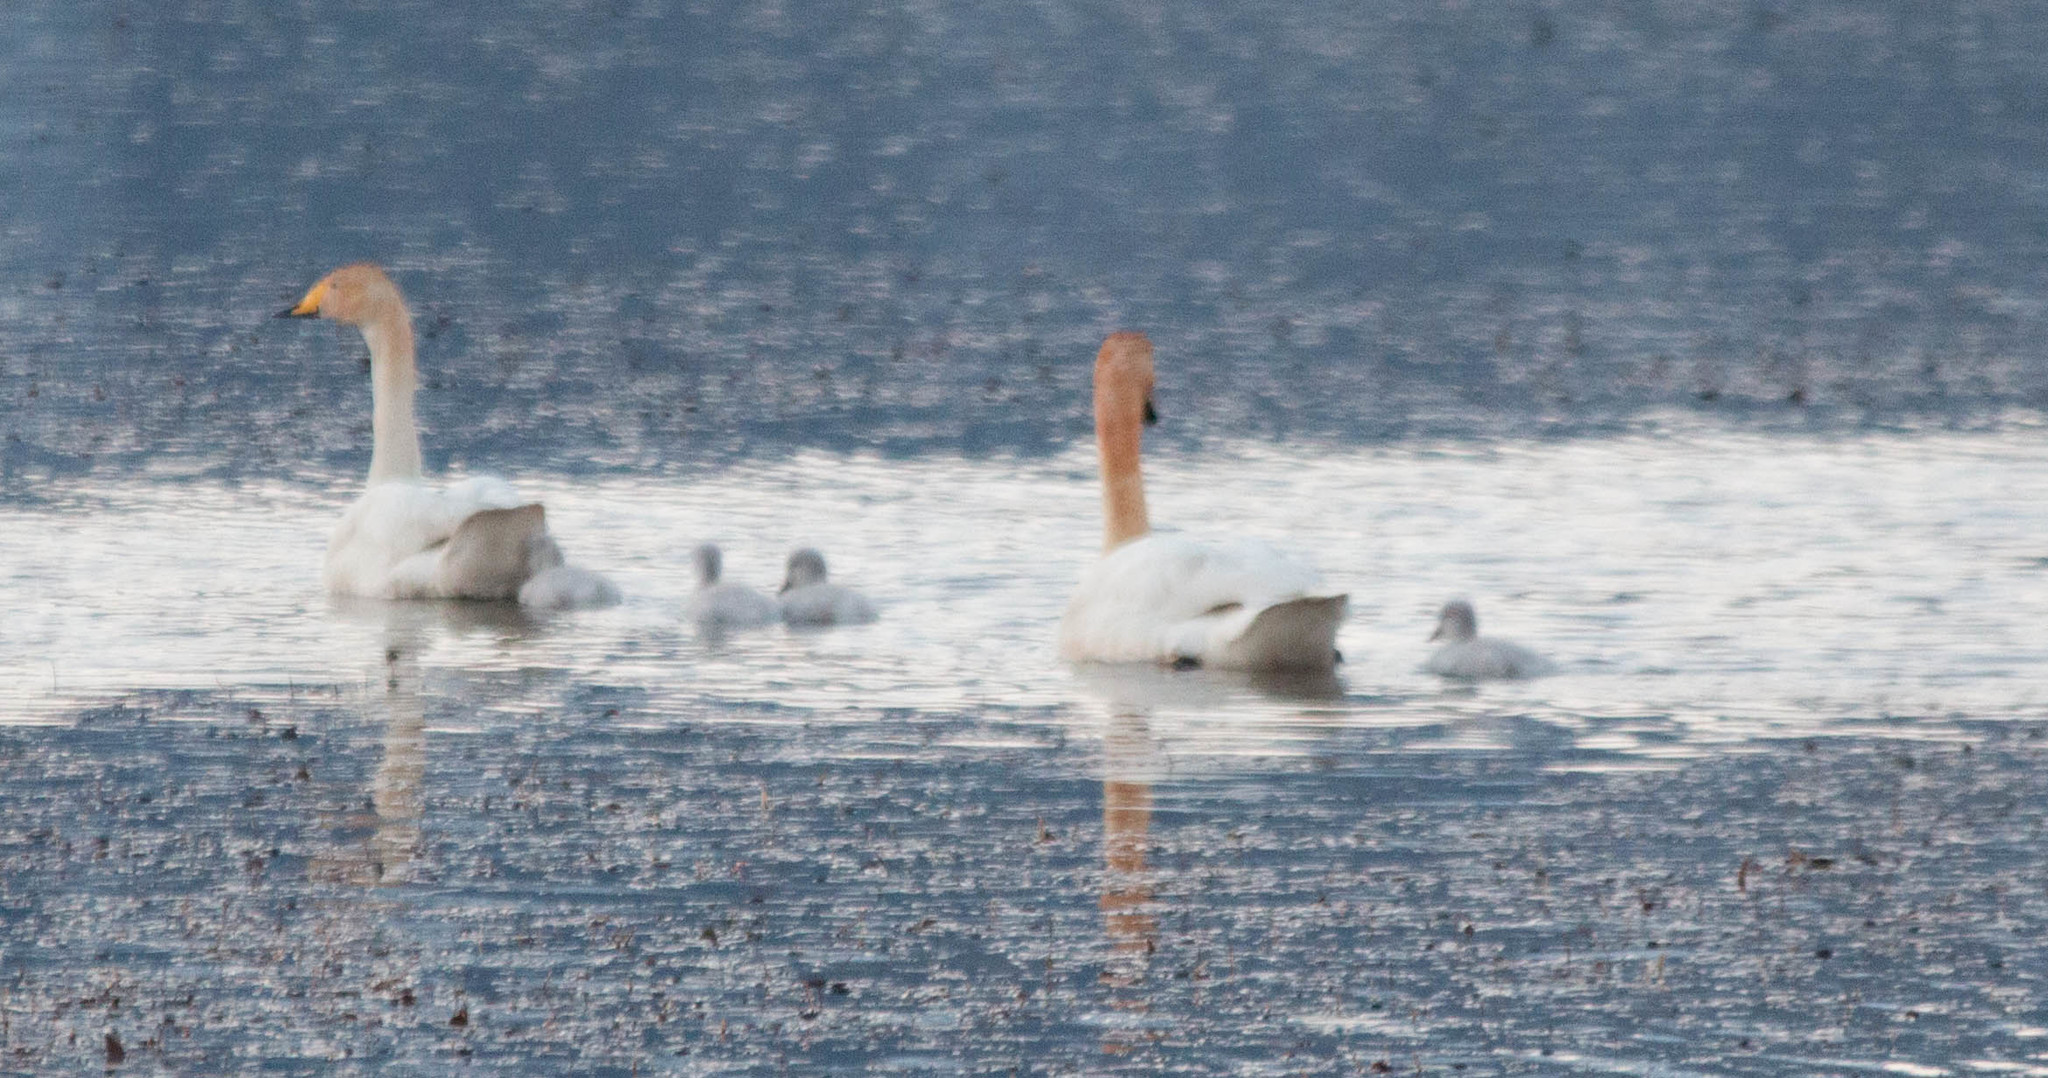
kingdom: Animalia
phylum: Chordata
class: Aves
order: Anseriformes
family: Anatidae
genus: Cygnus
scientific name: Cygnus cygnus
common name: Whooper swan
